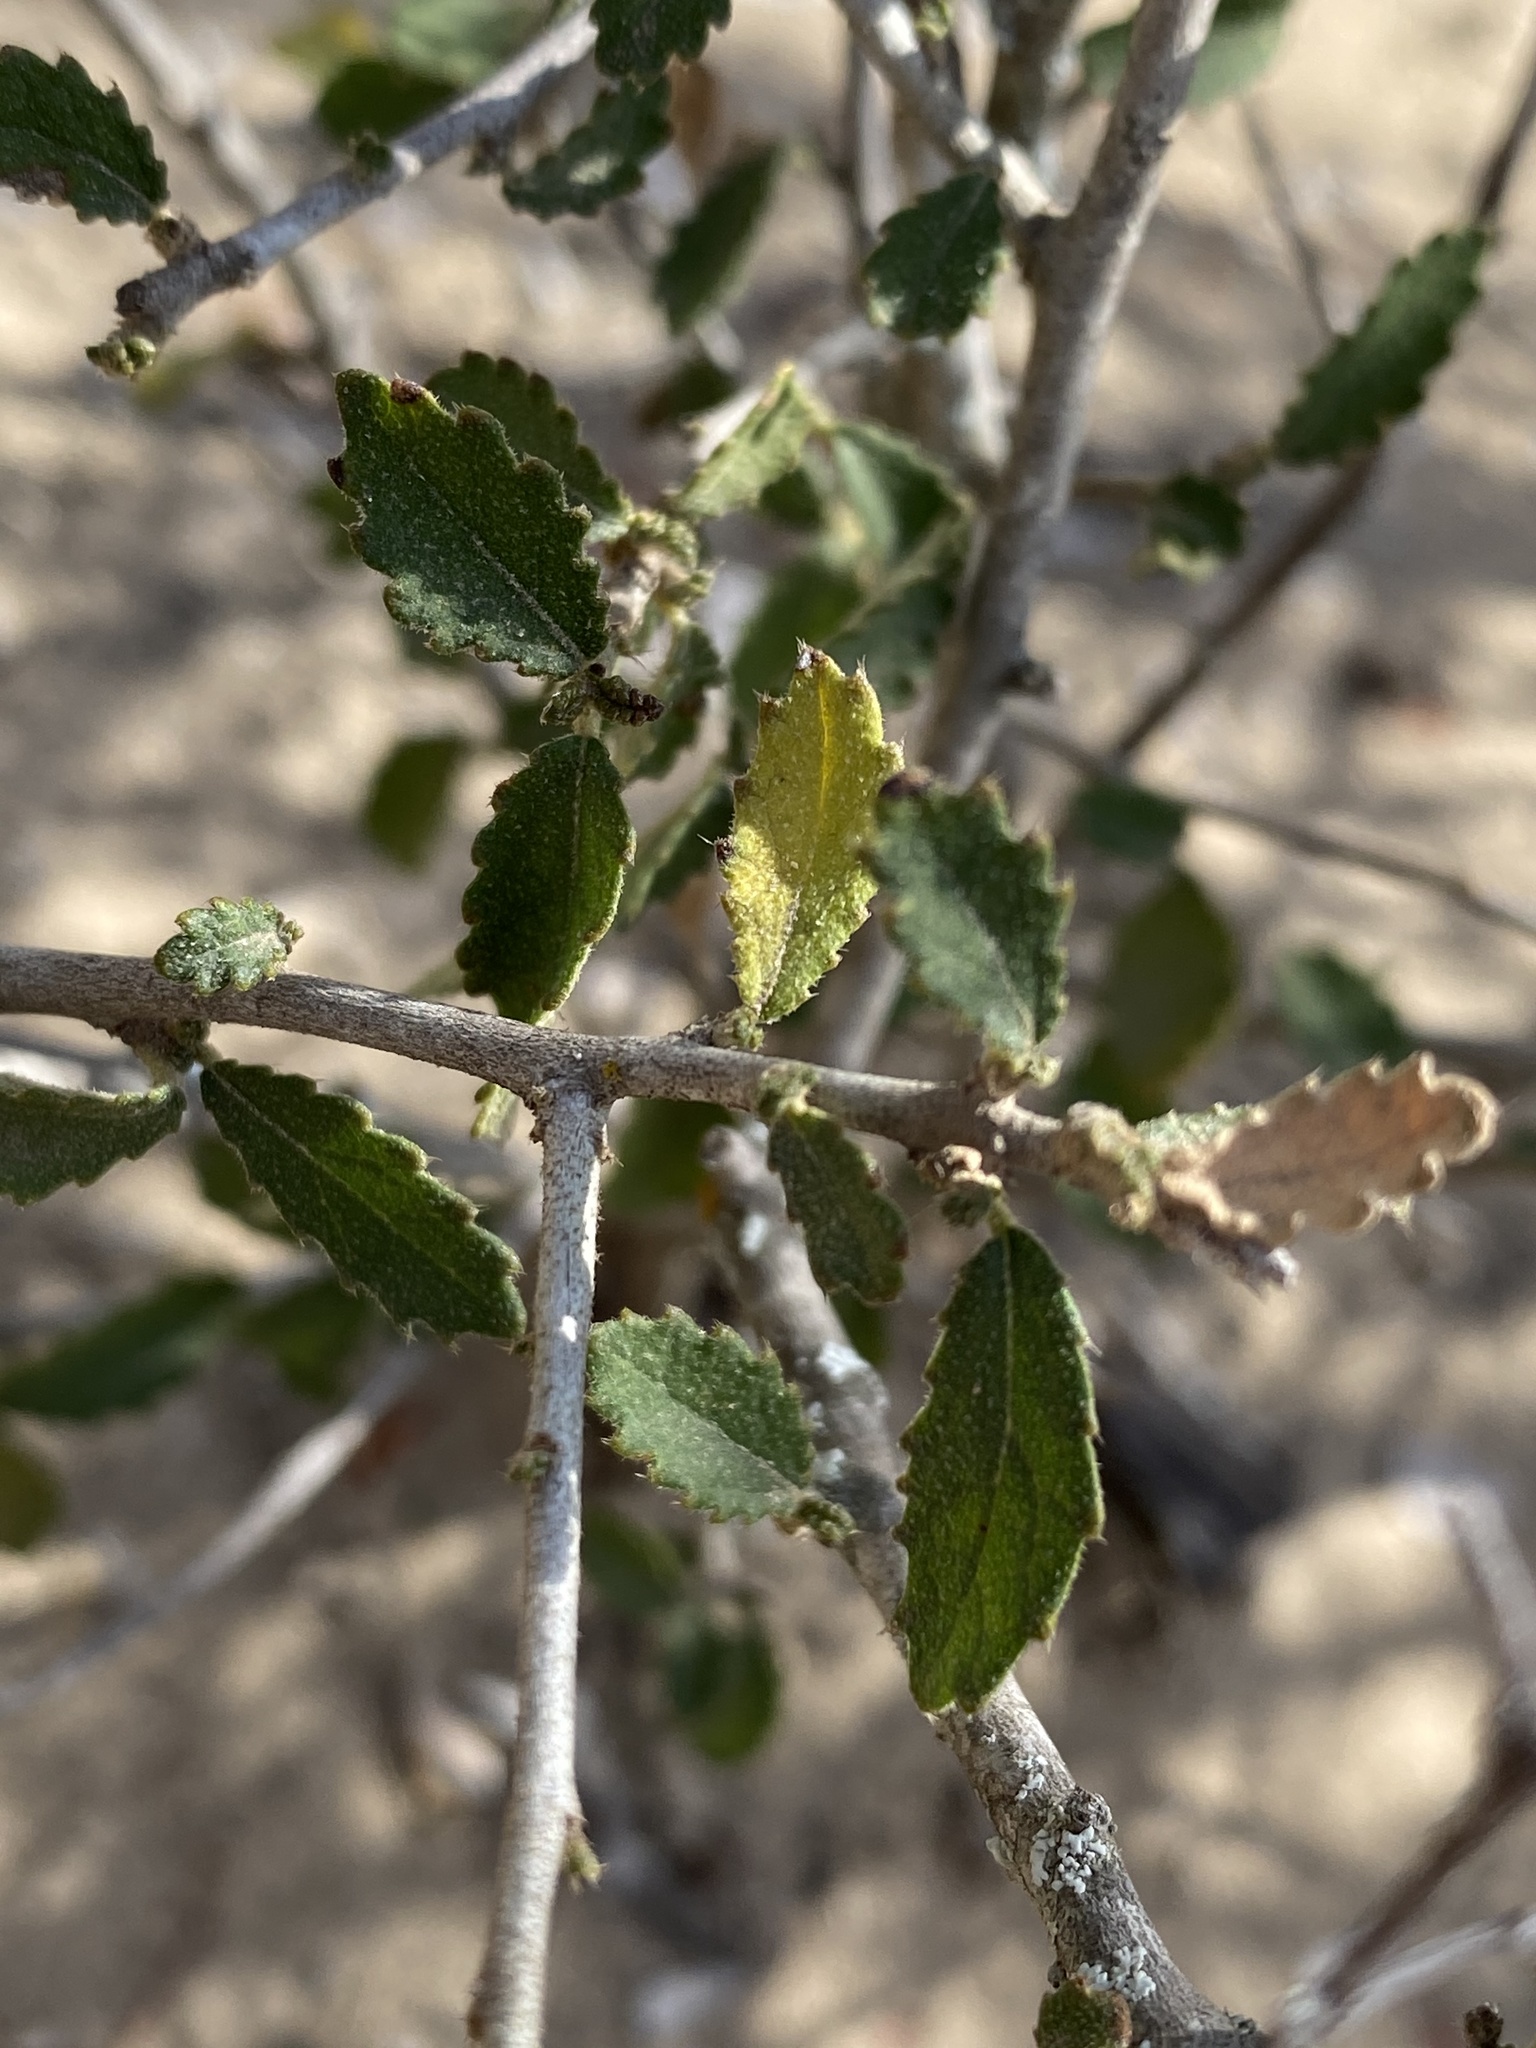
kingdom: Plantae
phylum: Tracheophyta
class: Magnoliopsida
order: Malpighiales
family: Euphorbiaceae
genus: Bernardia
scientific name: Bernardia myricifolia
